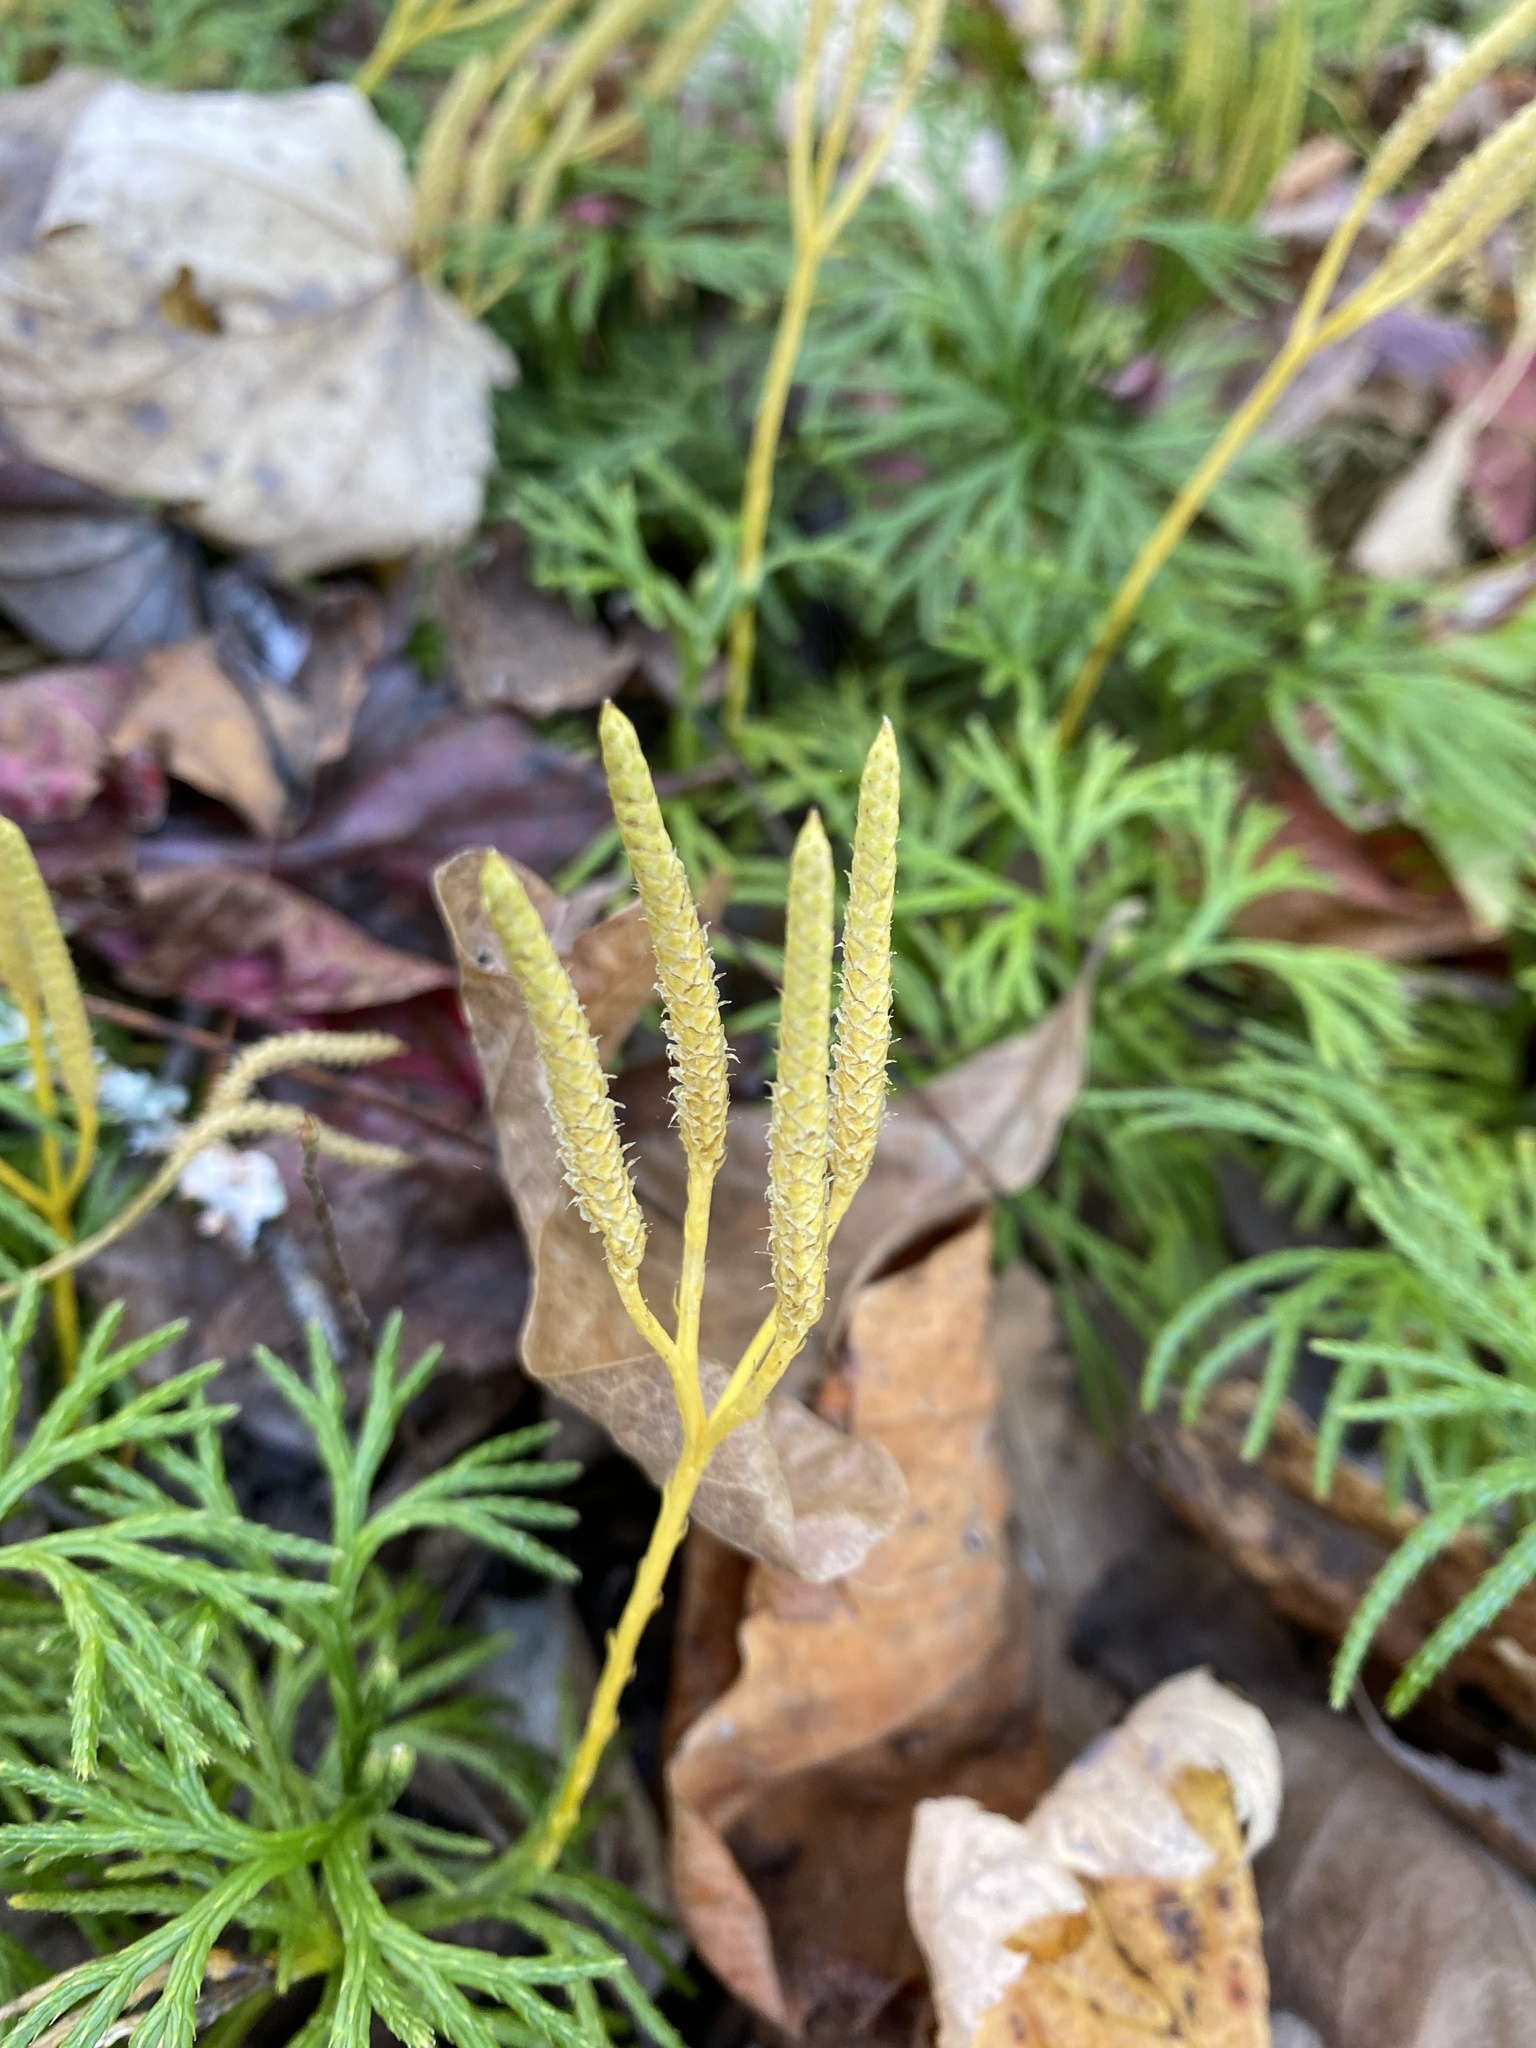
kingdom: Plantae
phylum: Tracheophyta
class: Lycopodiopsida
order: Lycopodiales
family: Lycopodiaceae
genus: Diphasiastrum
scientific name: Diphasiastrum digitatum
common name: Southern running-pine
